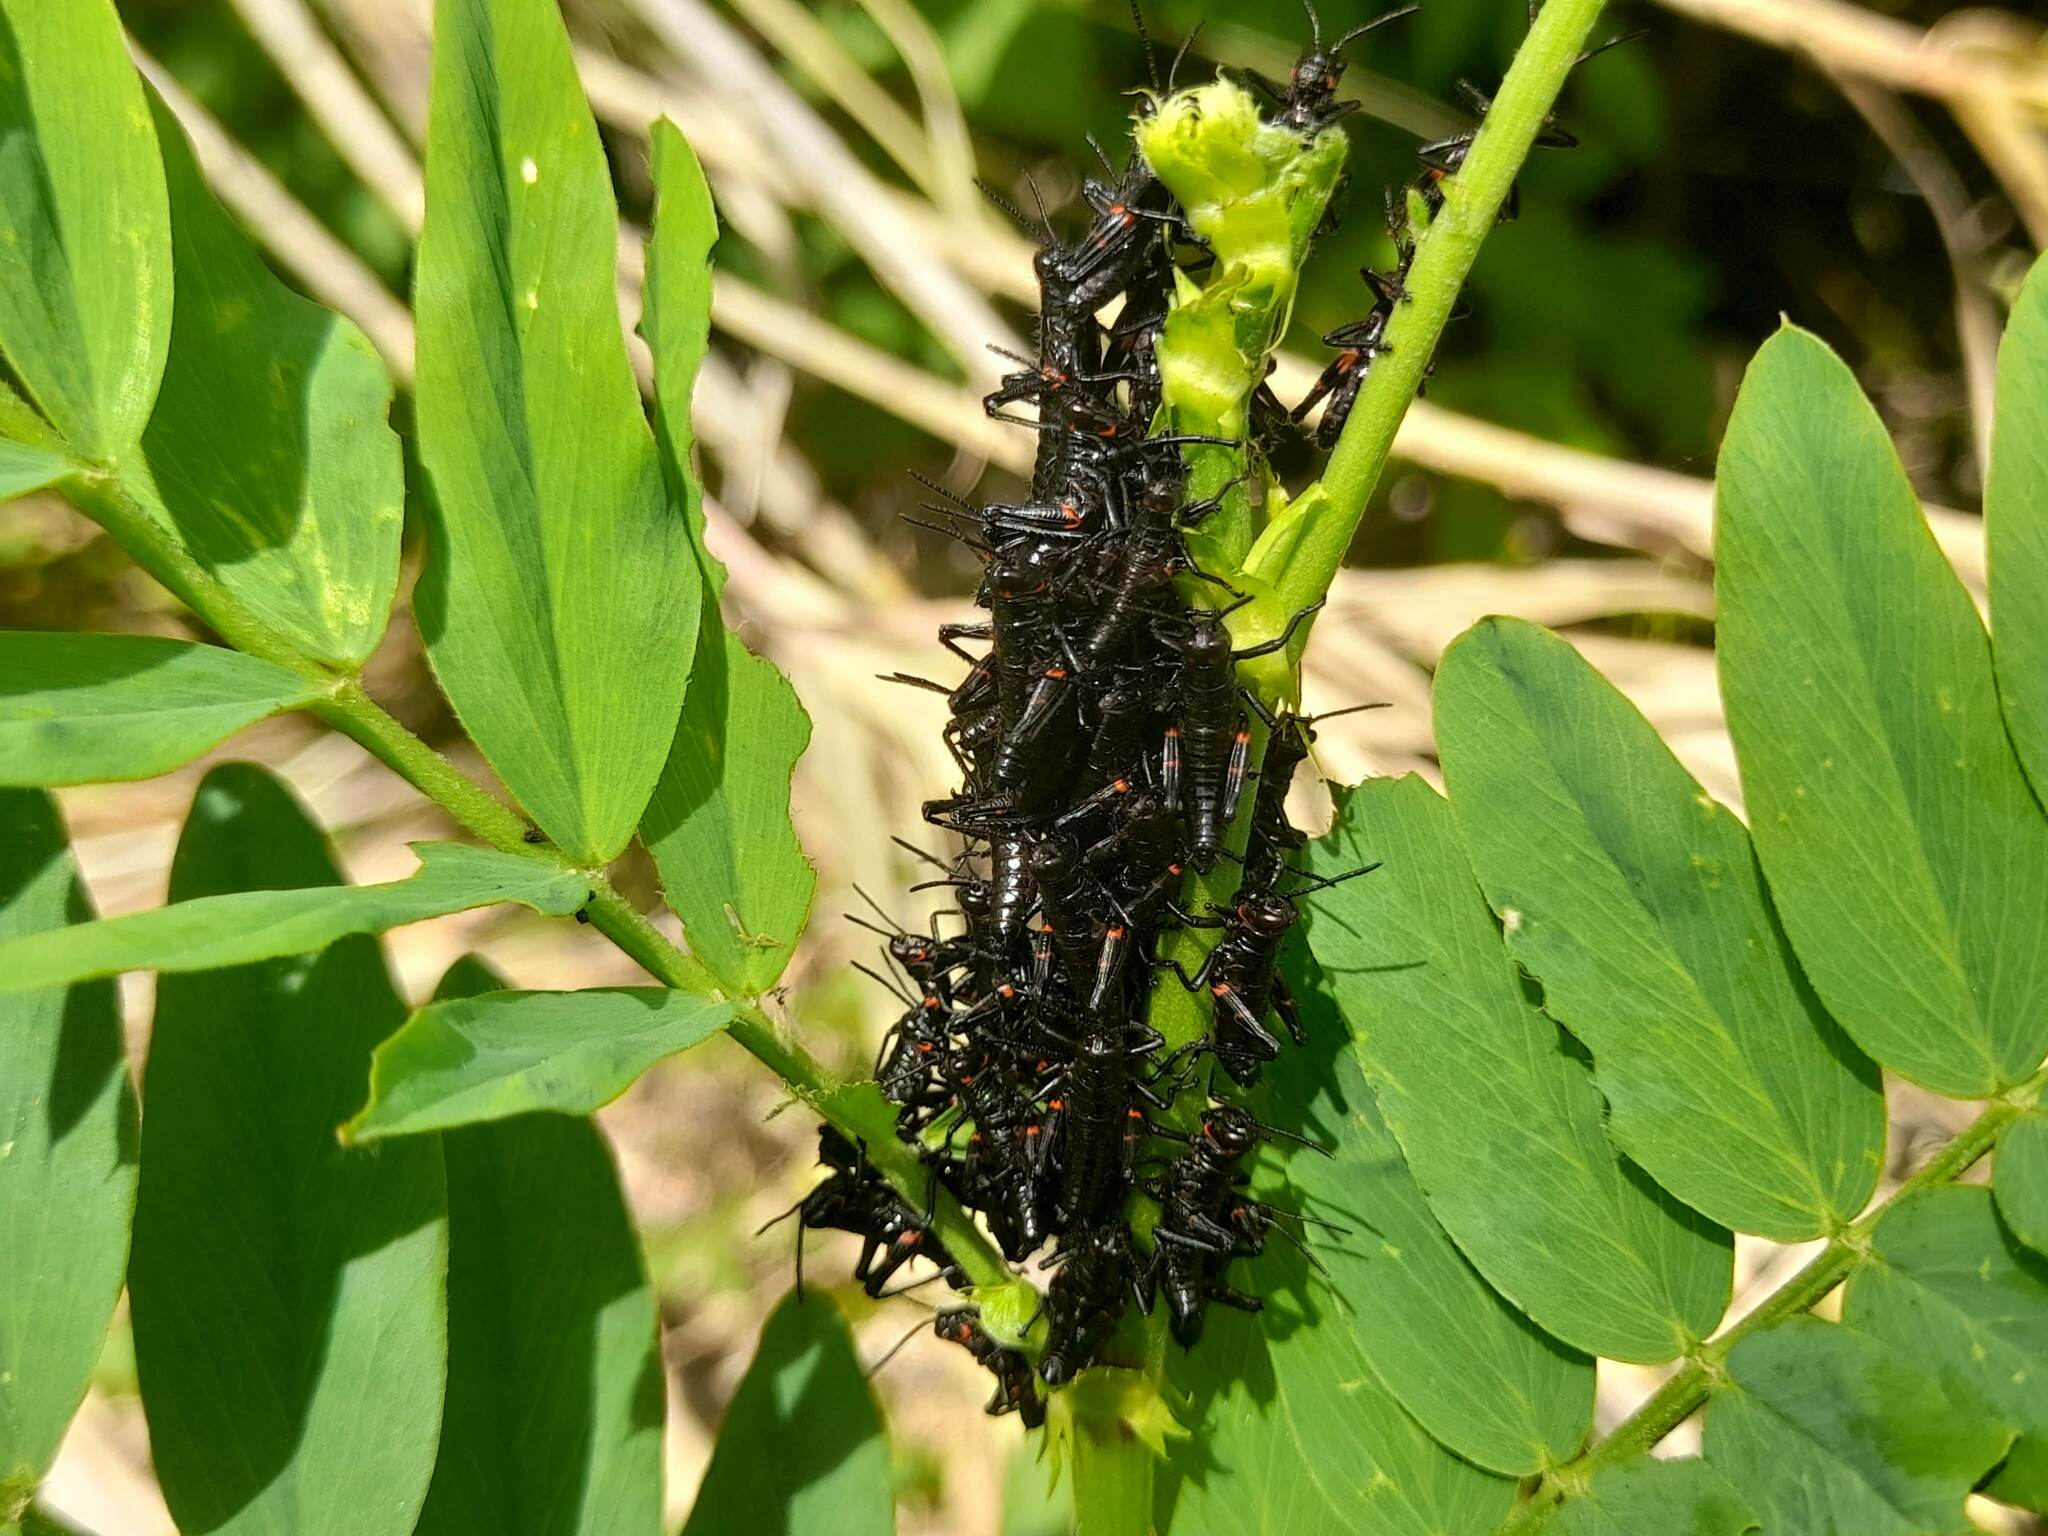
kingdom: Animalia
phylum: Arthropoda
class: Insecta
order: Orthoptera
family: Romaleidae
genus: Chromacris
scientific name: Chromacris speciosa
